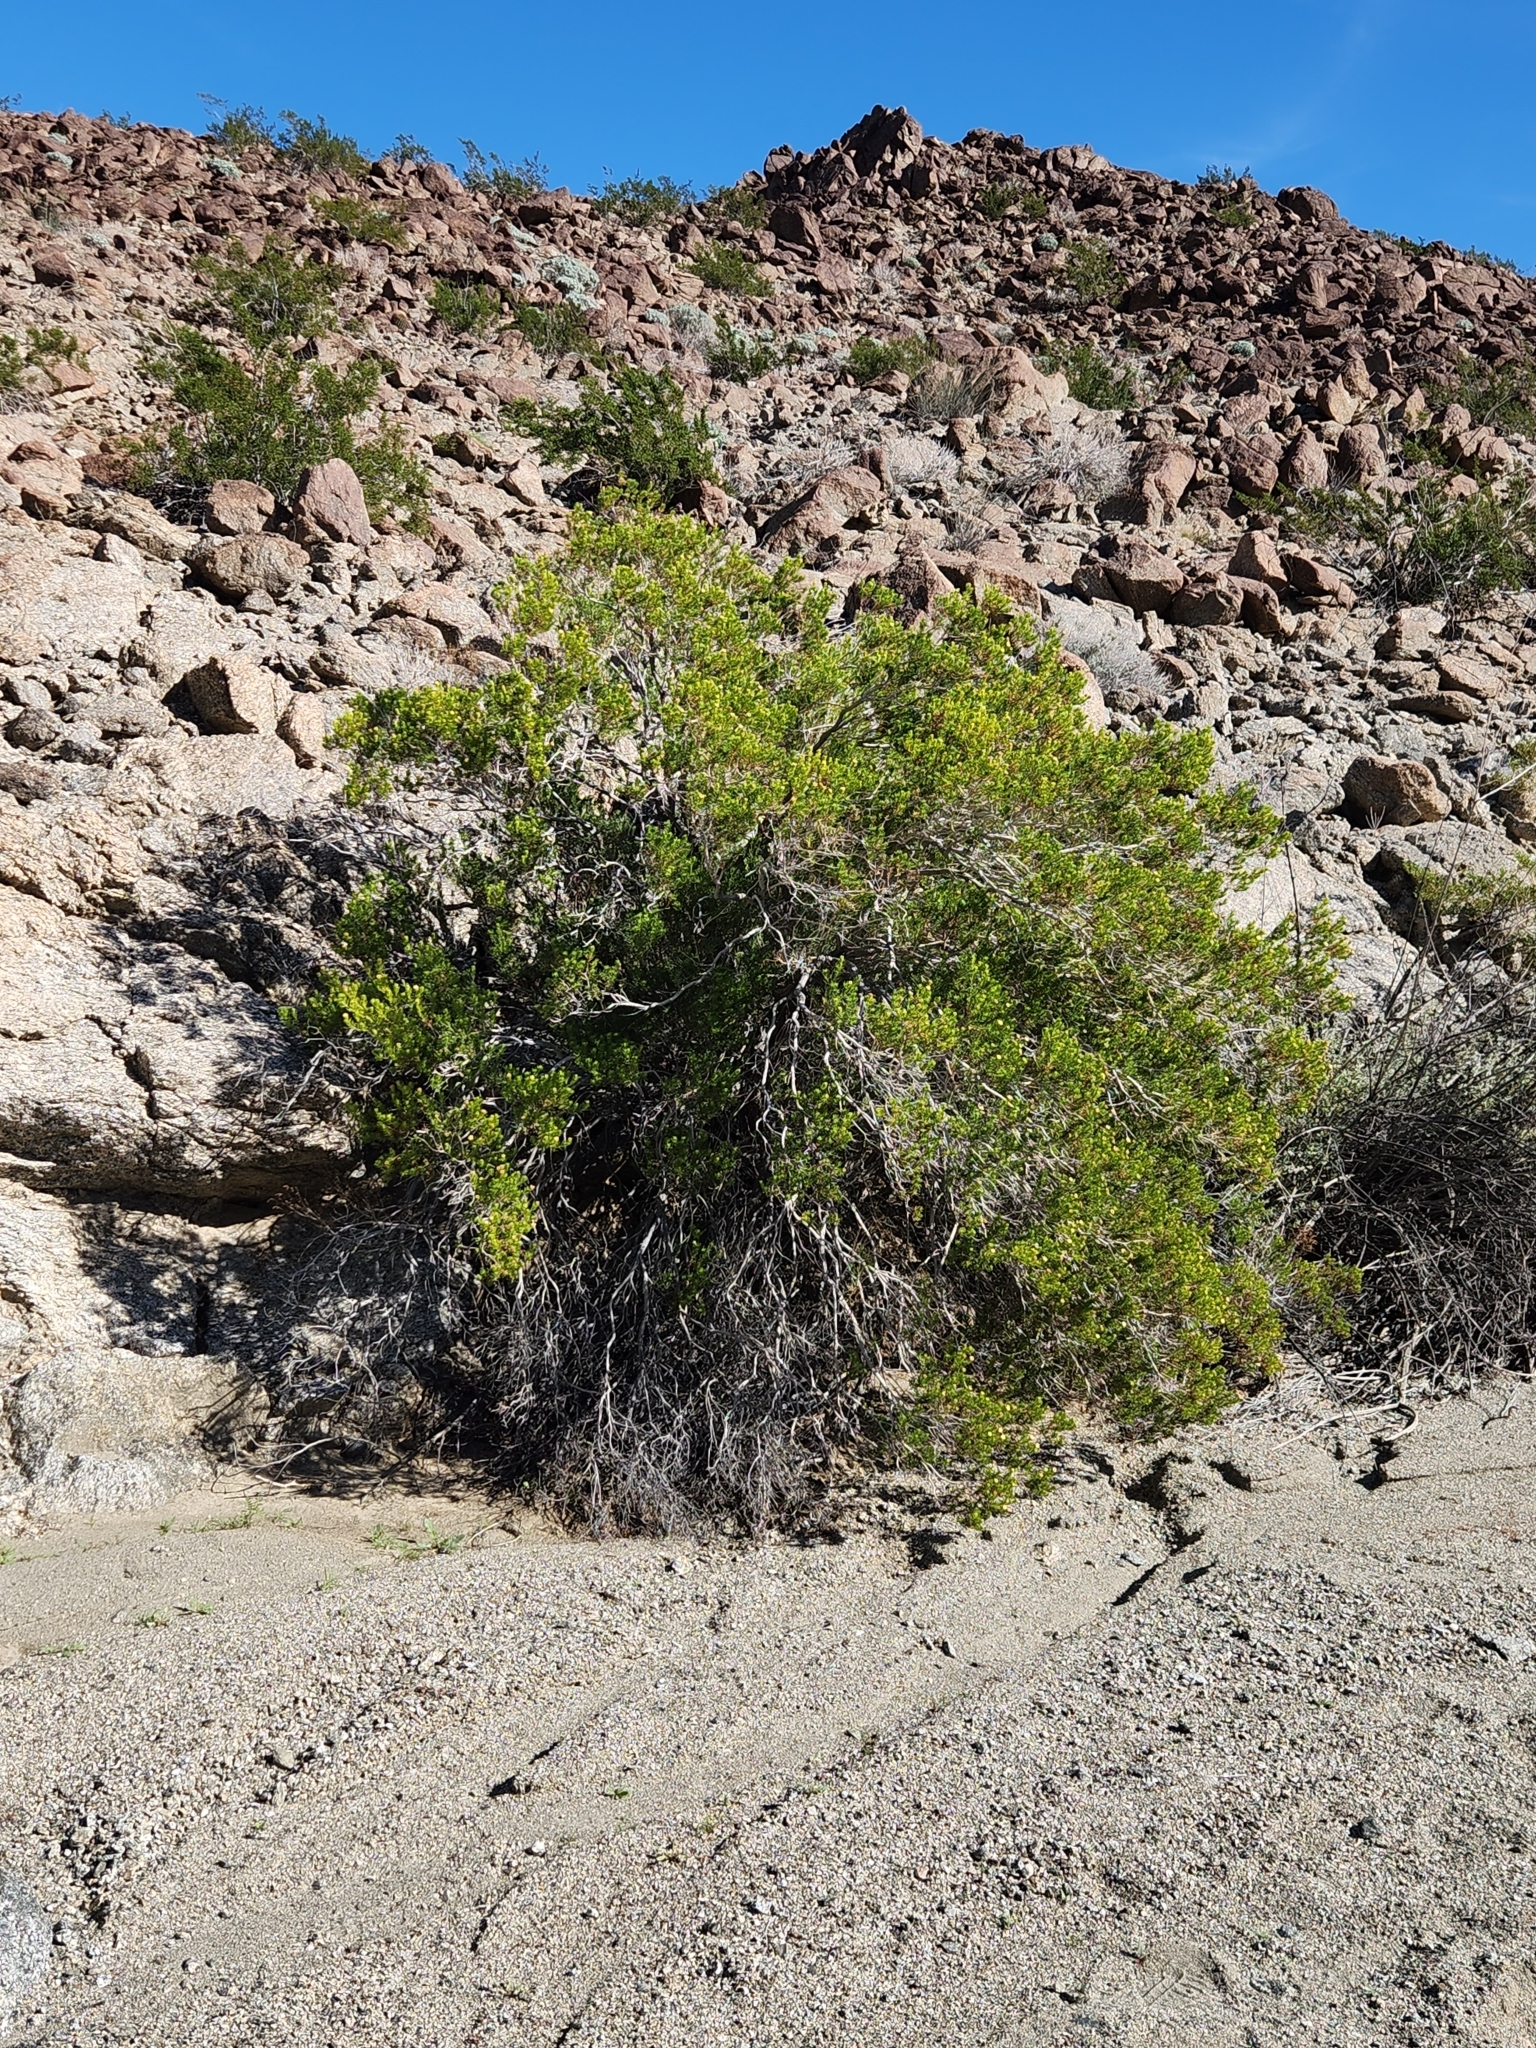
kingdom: Plantae
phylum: Tracheophyta
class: Magnoliopsida
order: Asterales
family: Asteraceae
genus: Peucephyllum
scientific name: Peucephyllum schottii
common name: Pygmy-cedar
